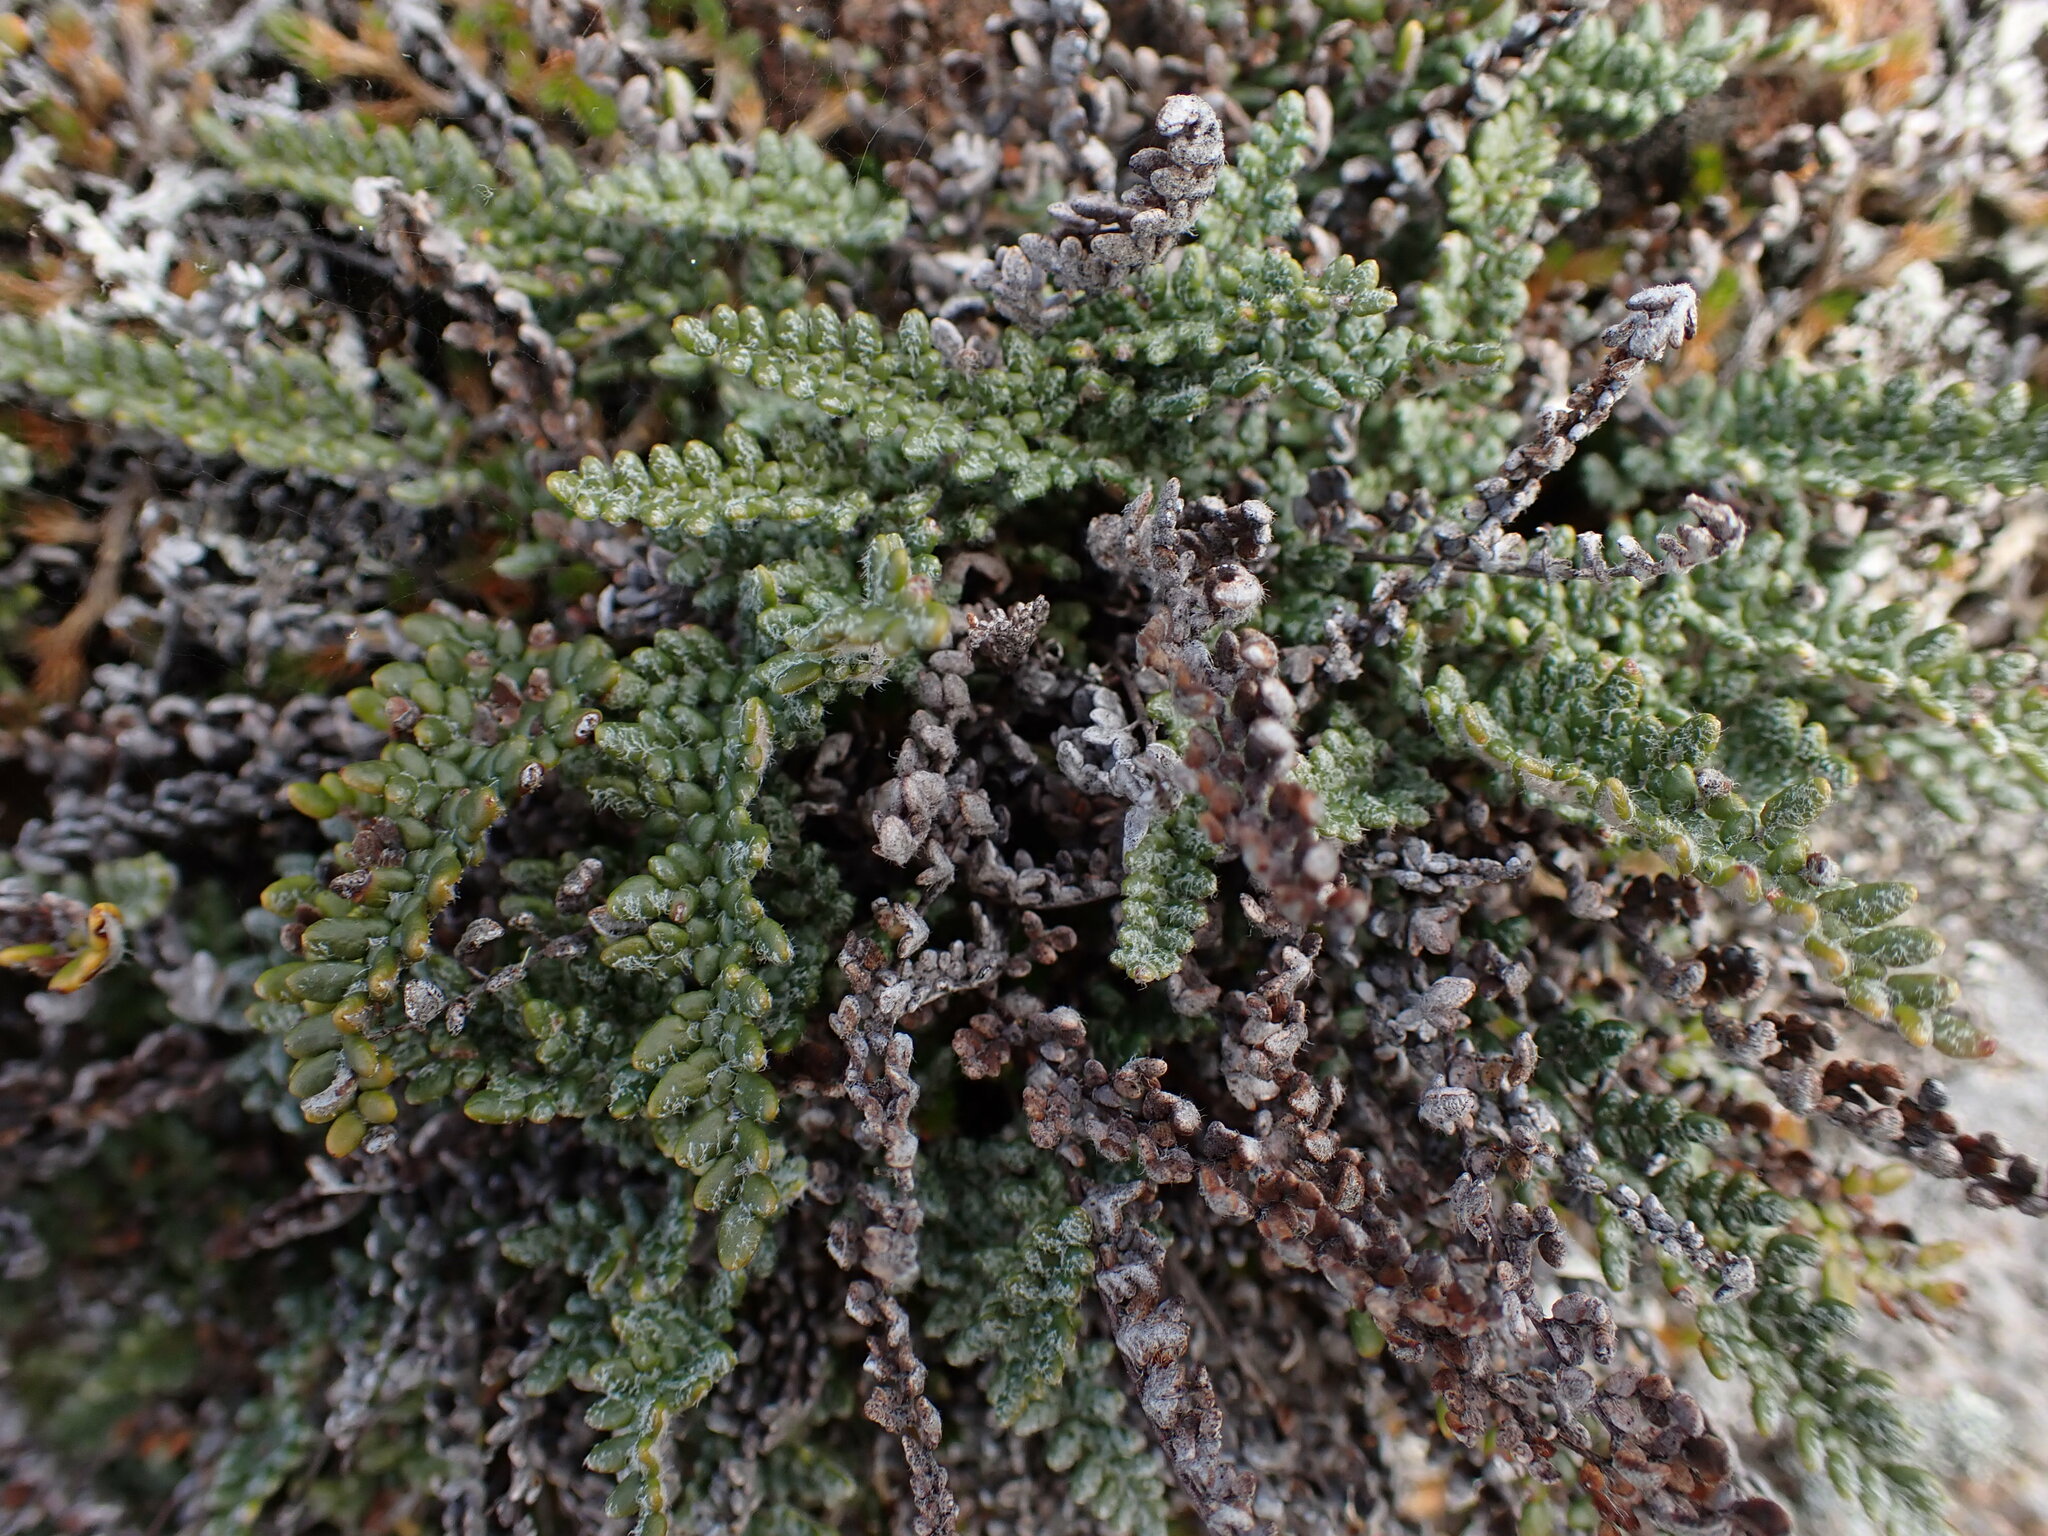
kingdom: Plantae
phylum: Tracheophyta
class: Polypodiopsida
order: Polypodiales
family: Pteridaceae
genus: Myriopteris
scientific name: Myriopteris gracillima
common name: Lace fern
